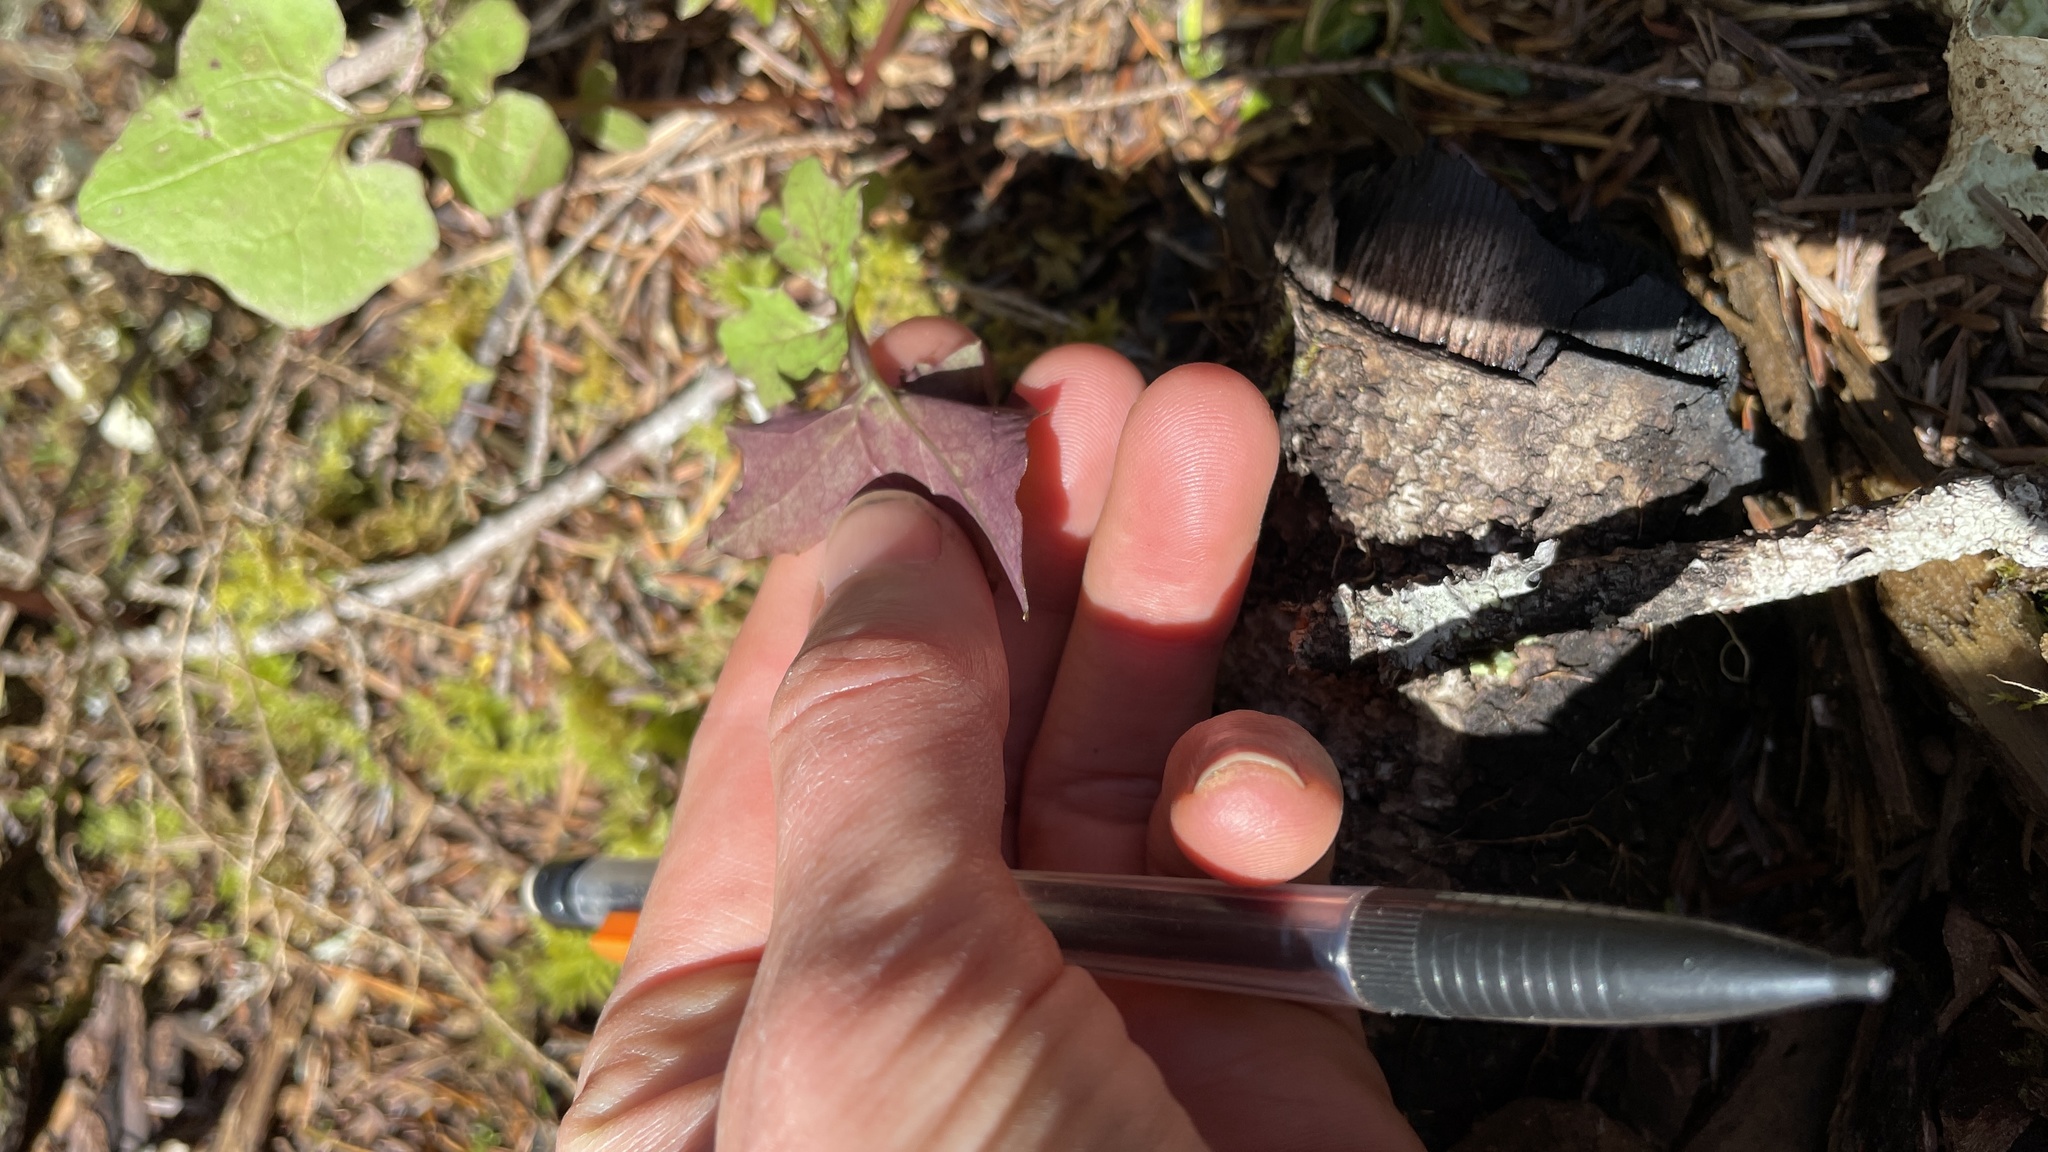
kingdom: Plantae
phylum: Tracheophyta
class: Magnoliopsida
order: Asterales
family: Asteraceae
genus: Mycelis
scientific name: Mycelis muralis
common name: Wall lettuce
